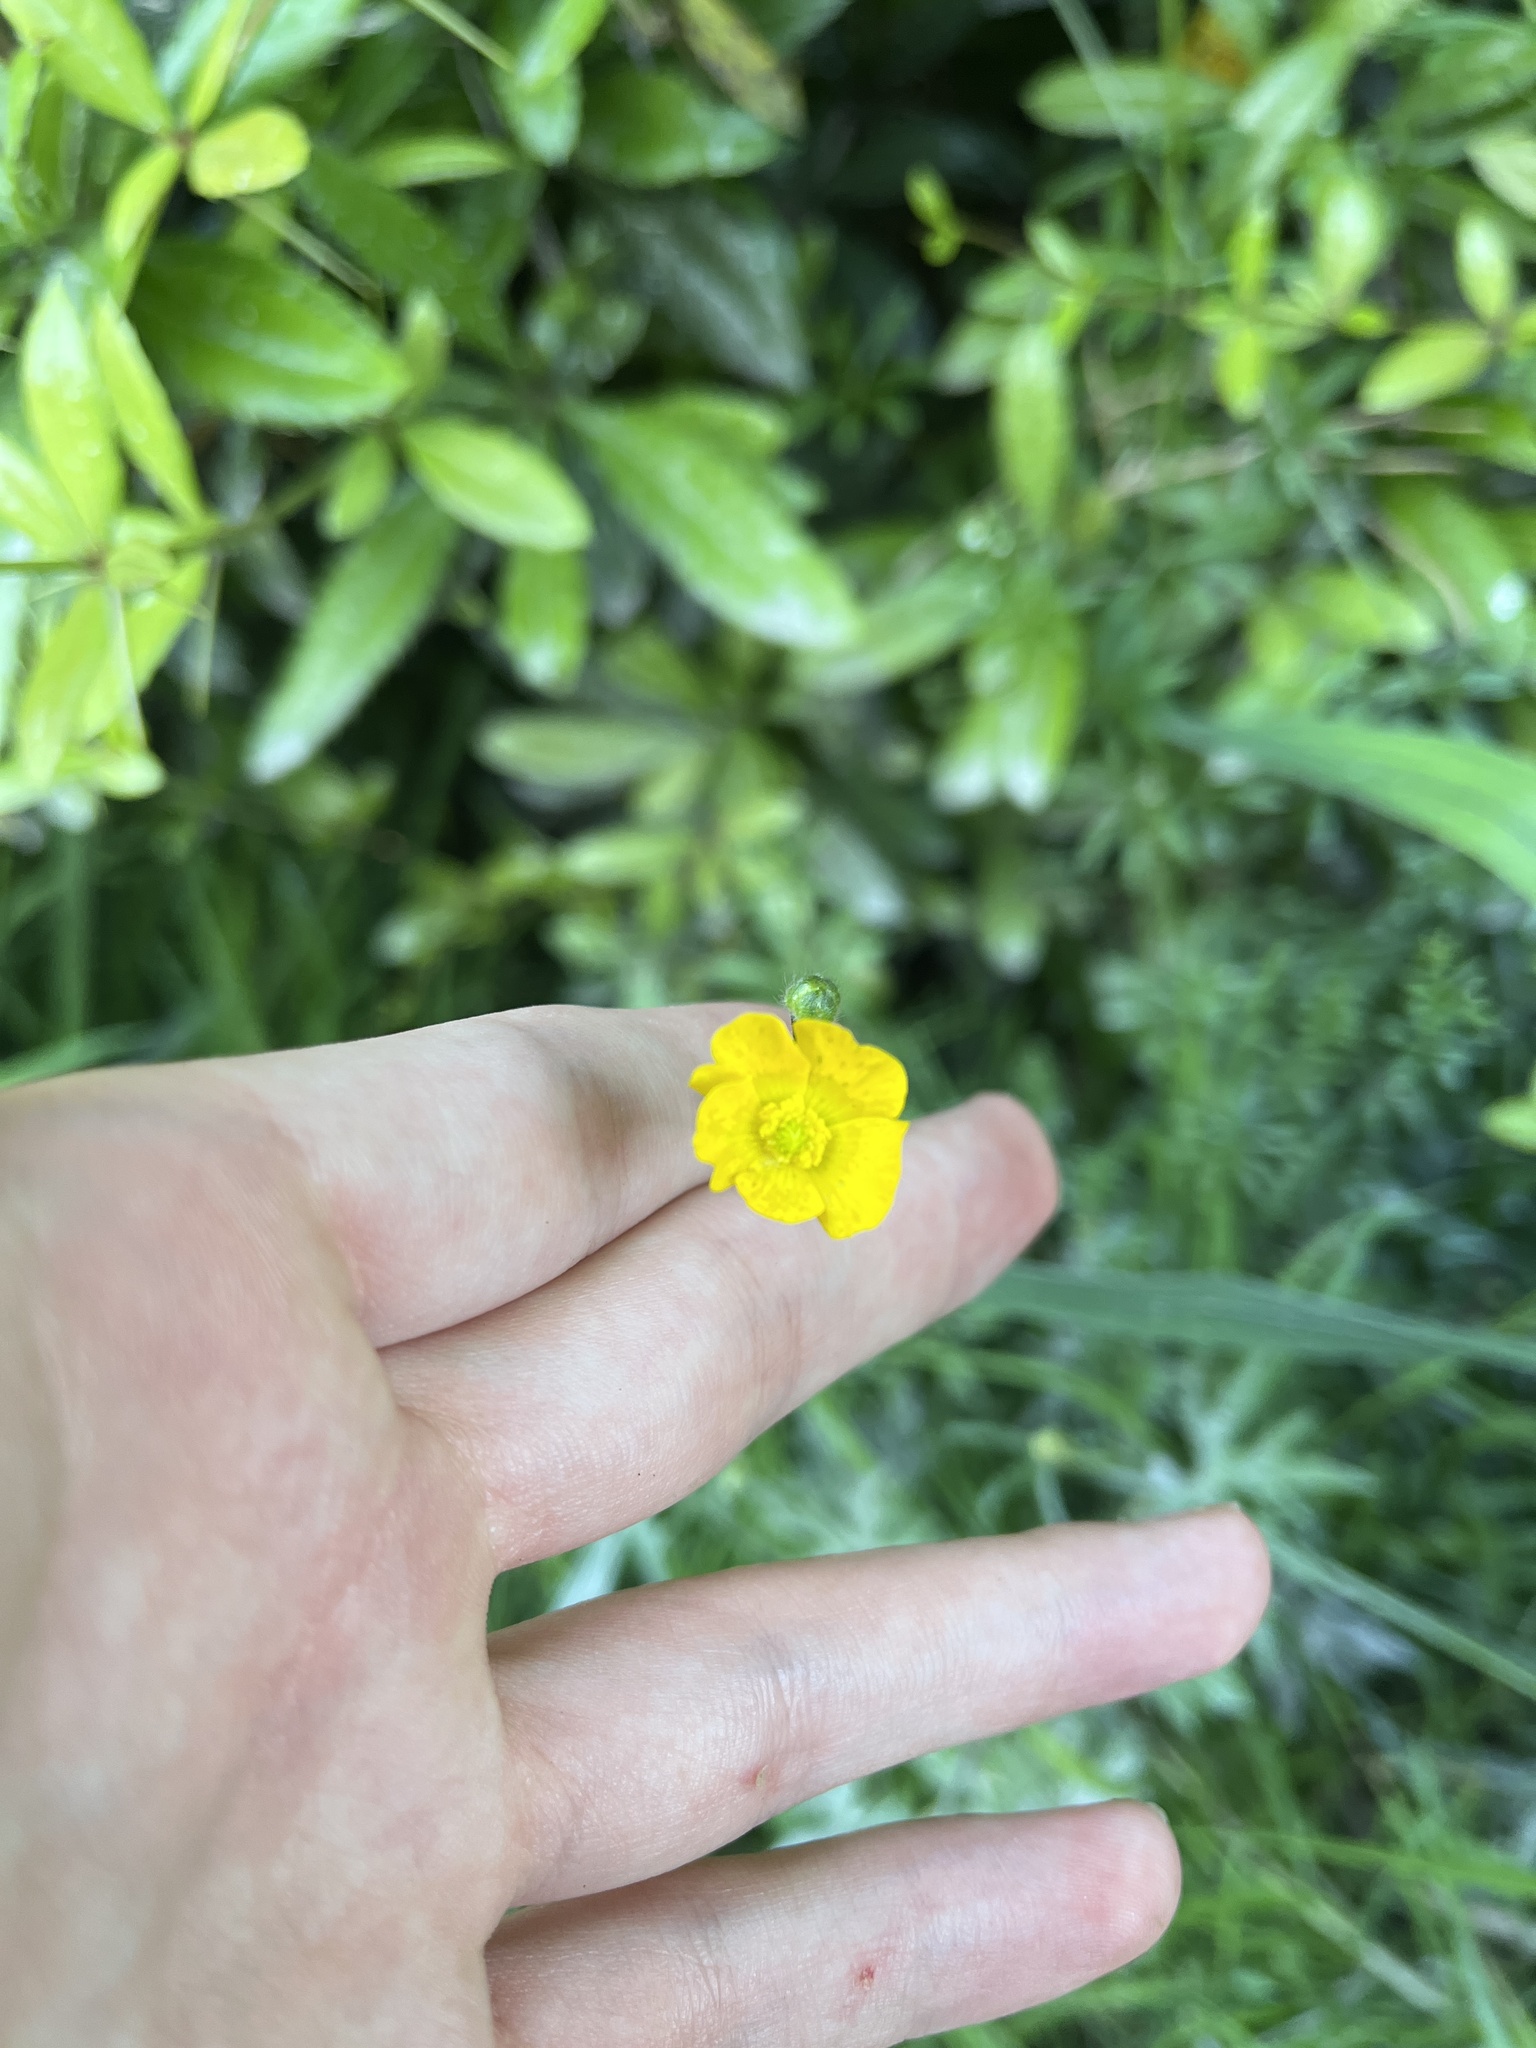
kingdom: Plantae
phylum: Tracheophyta
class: Magnoliopsida
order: Ranunculales
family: Ranunculaceae
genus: Ranunculus
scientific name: Ranunculus acris
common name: Meadow buttercup
